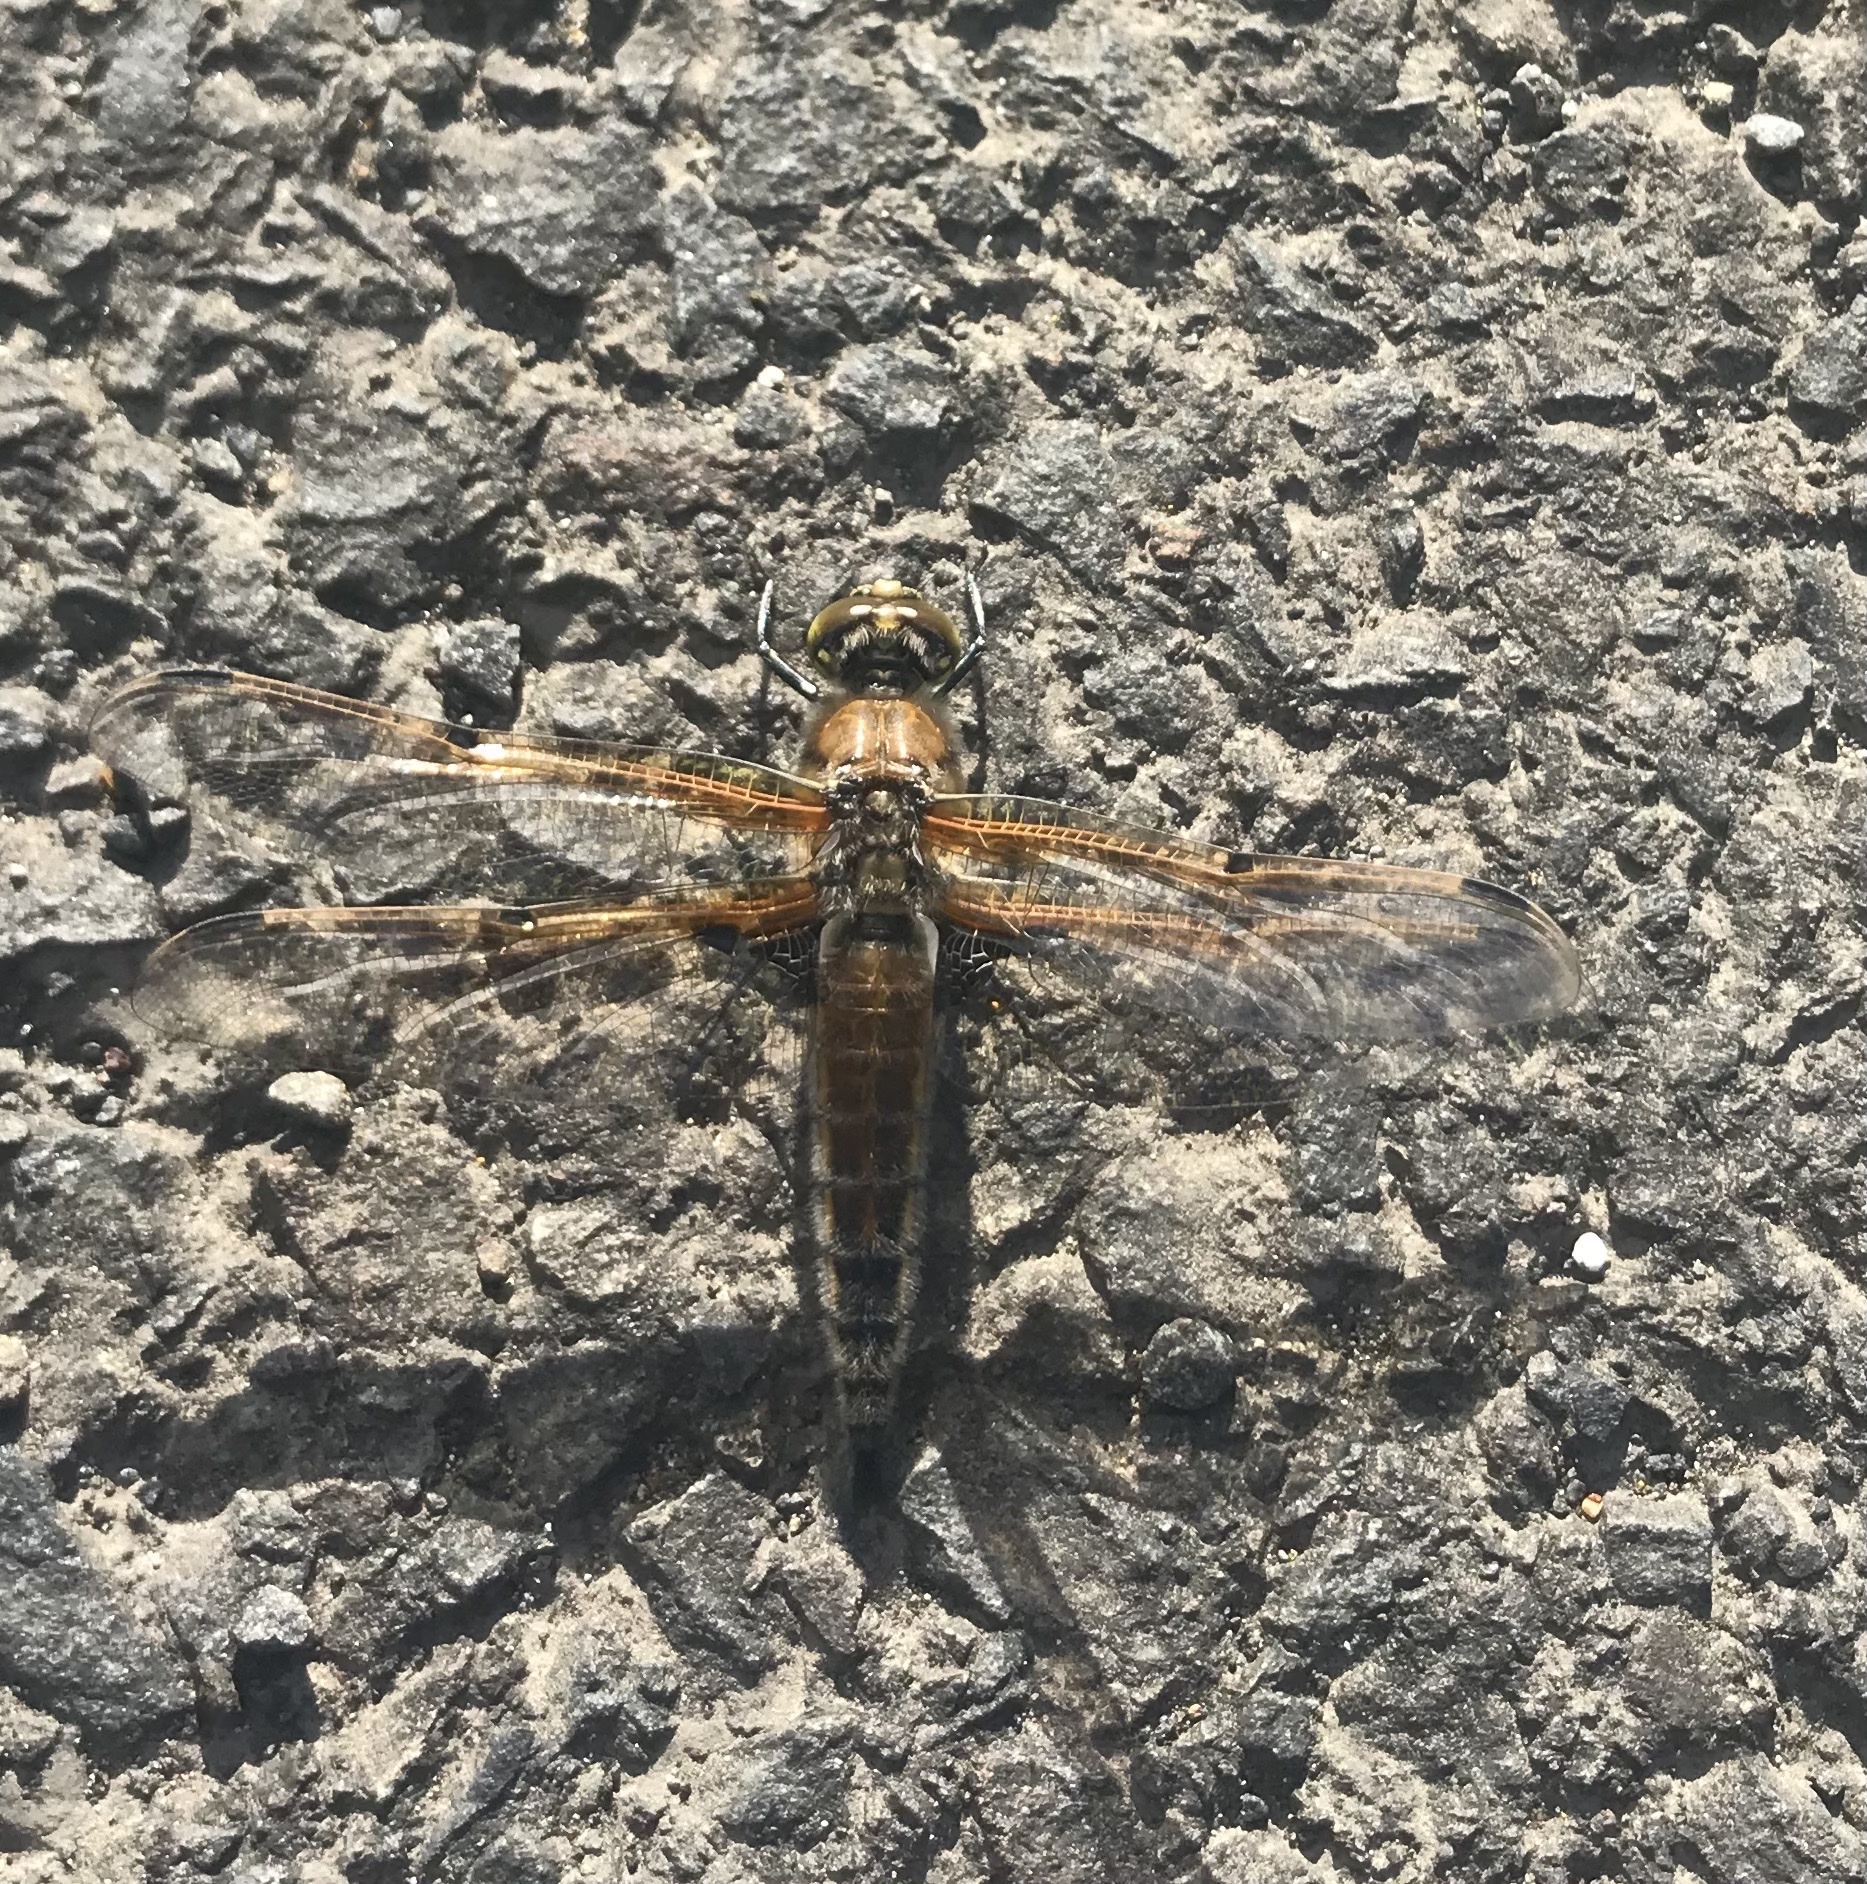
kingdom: Animalia
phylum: Arthropoda
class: Insecta
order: Odonata
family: Libellulidae
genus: Libellula
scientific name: Libellula quadrimaculata
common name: Four-spotted chaser
